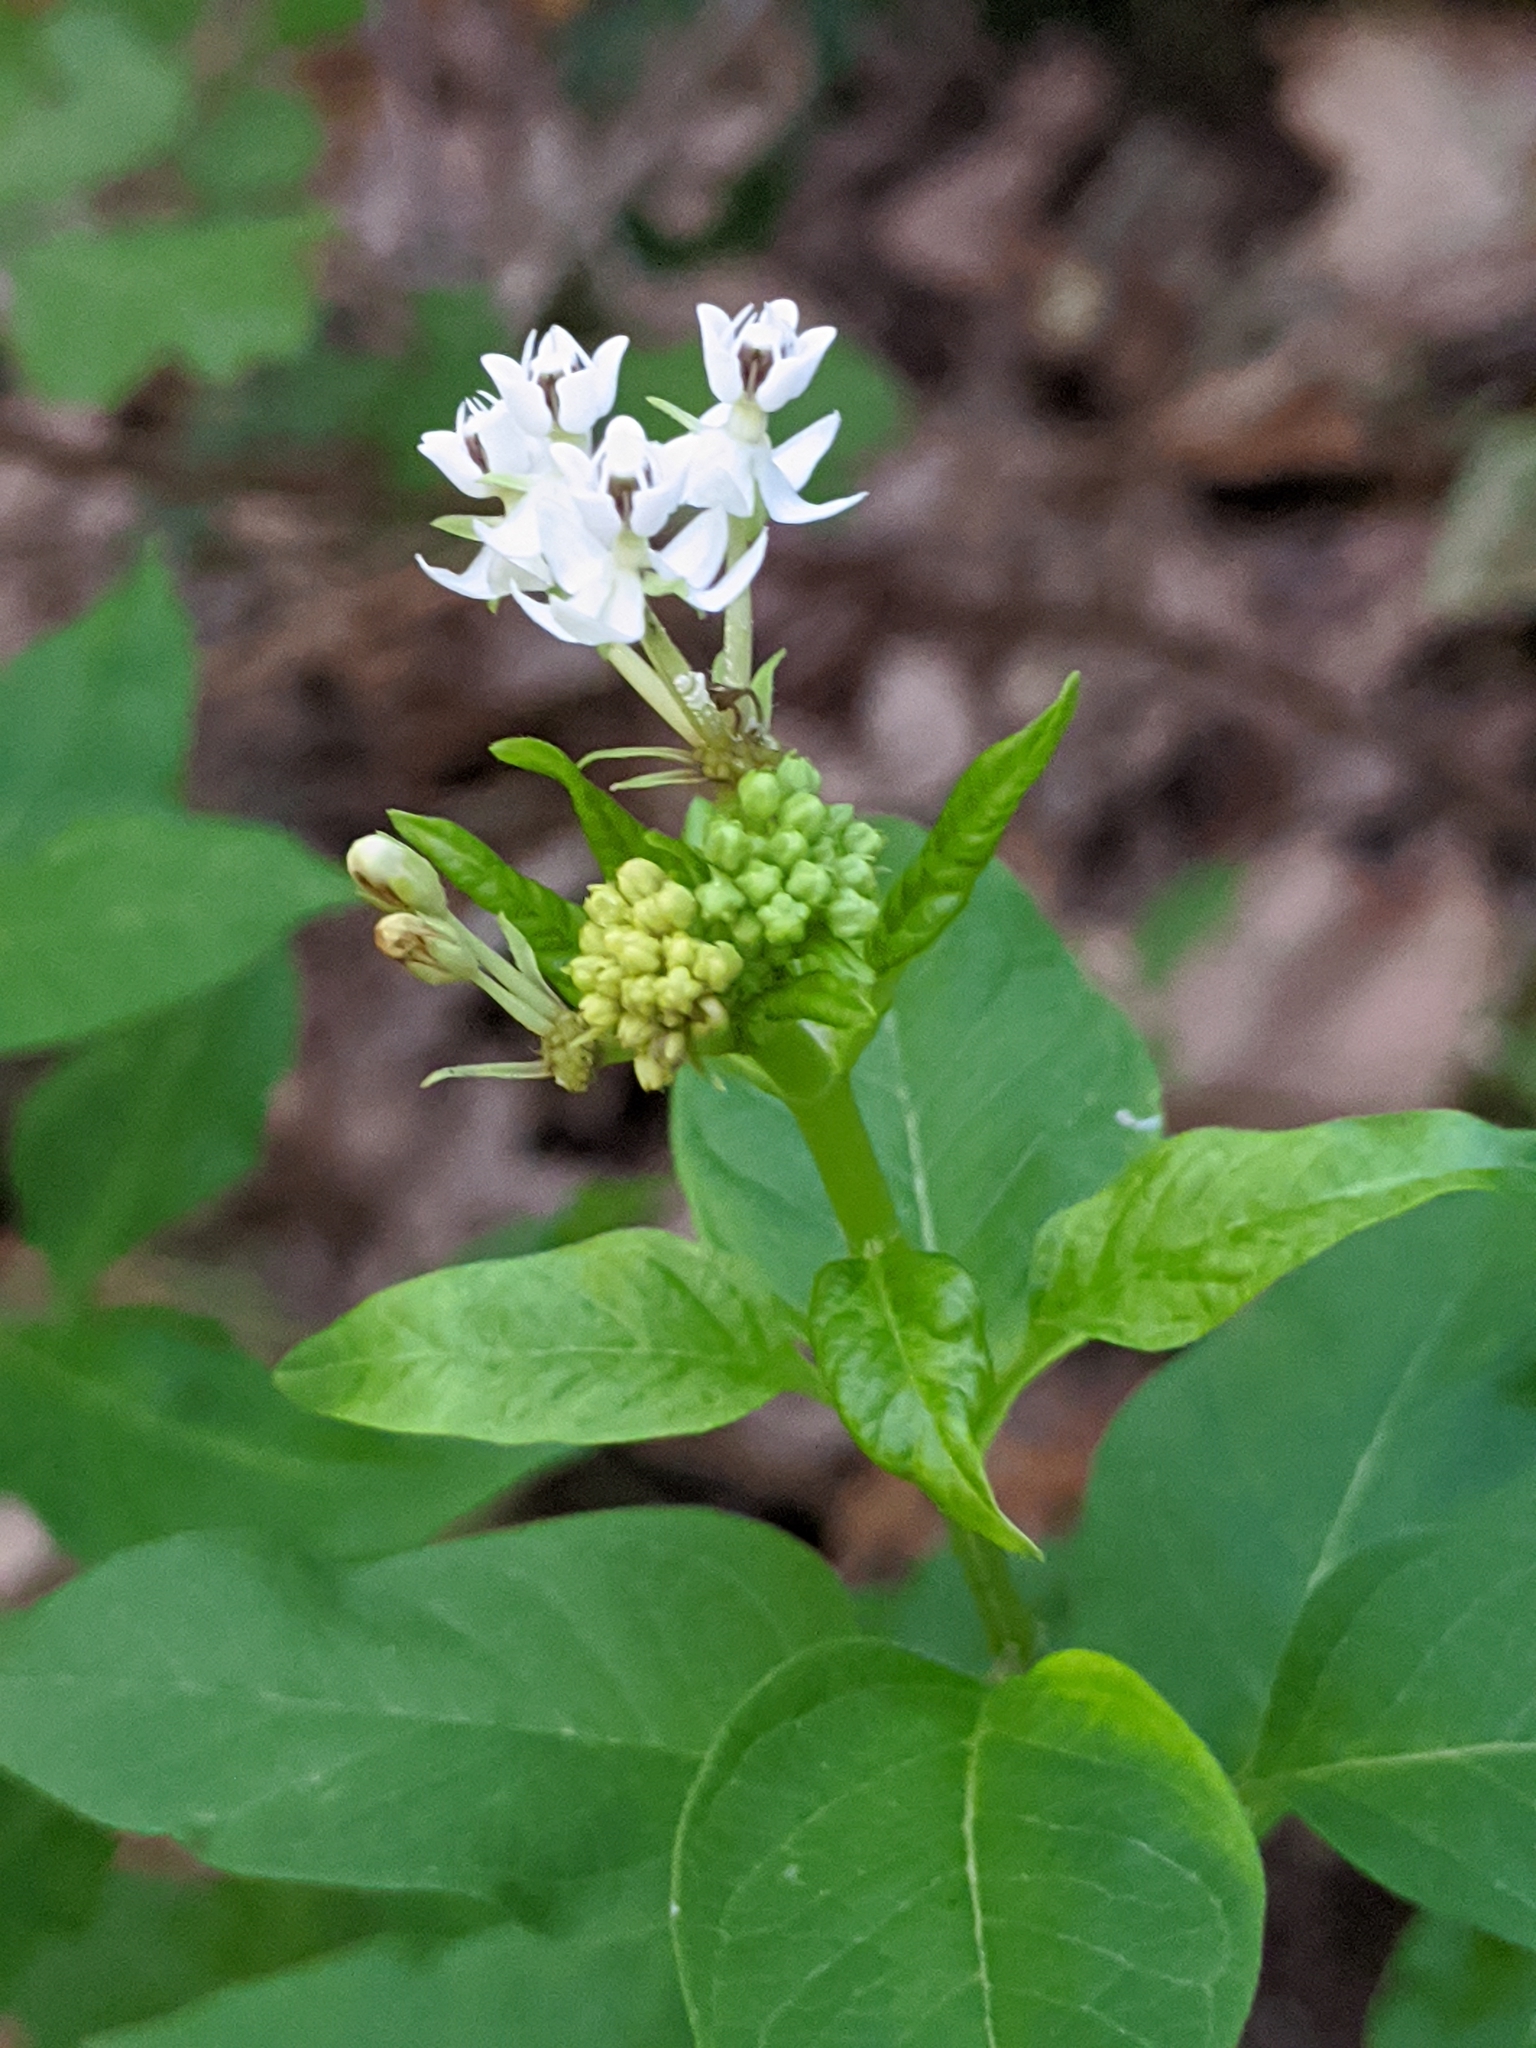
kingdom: Plantae
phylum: Tracheophyta
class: Magnoliopsida
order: Gentianales
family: Apocynaceae
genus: Asclepias
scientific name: Asclepias texana
